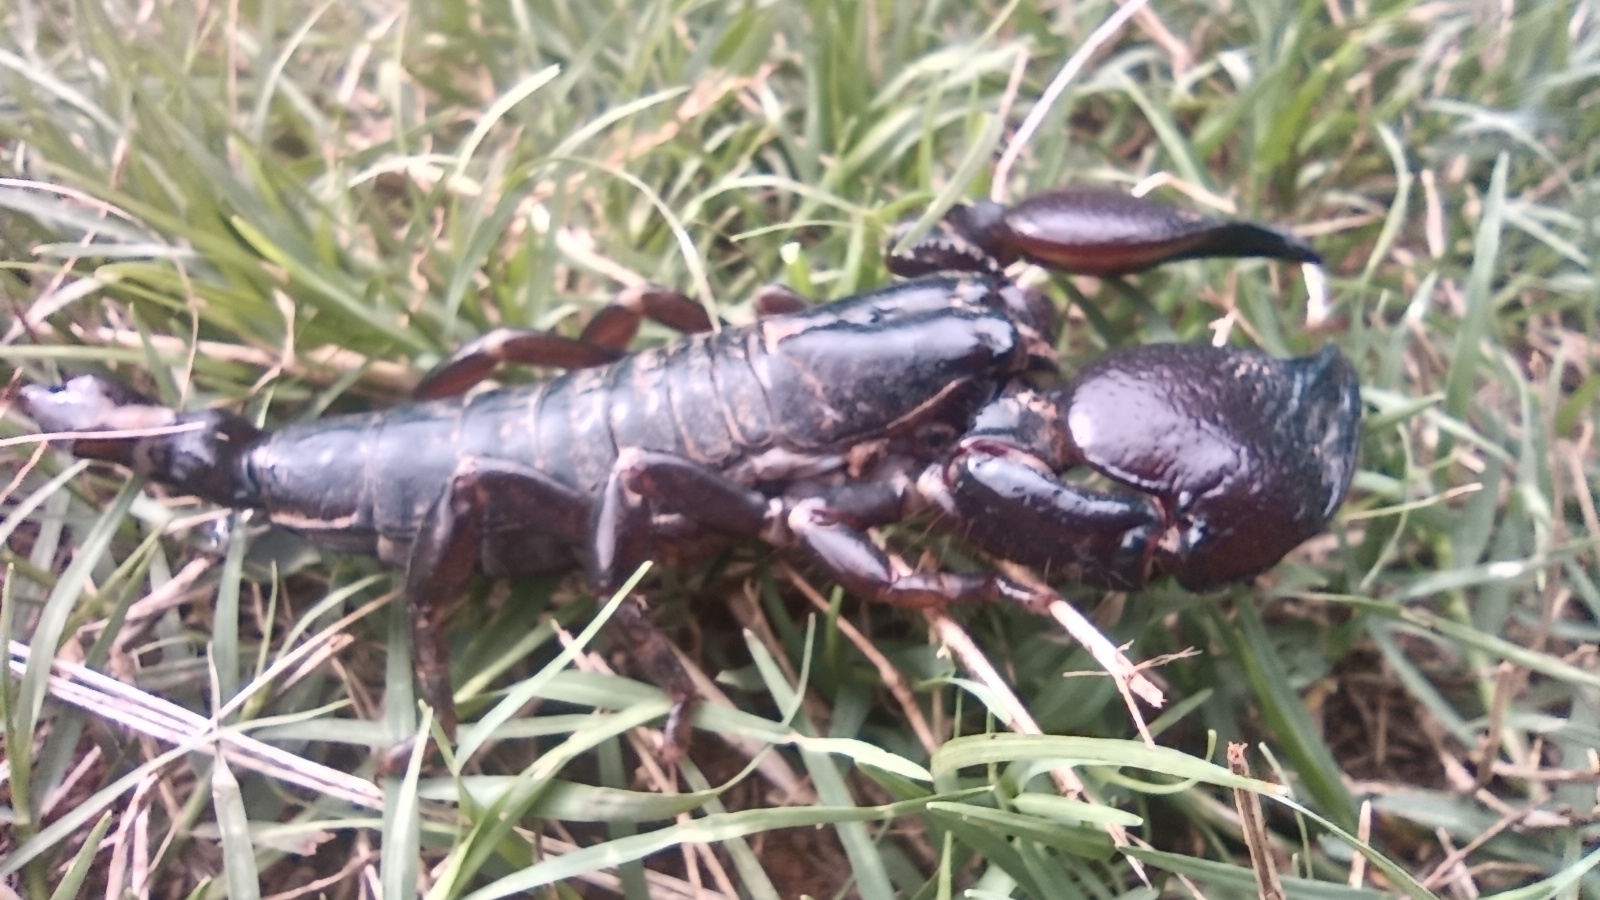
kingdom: Animalia
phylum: Arthropoda
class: Arachnida
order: Scorpiones
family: Scorpionidae
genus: Pandinoides
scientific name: Pandinoides cavimanus
